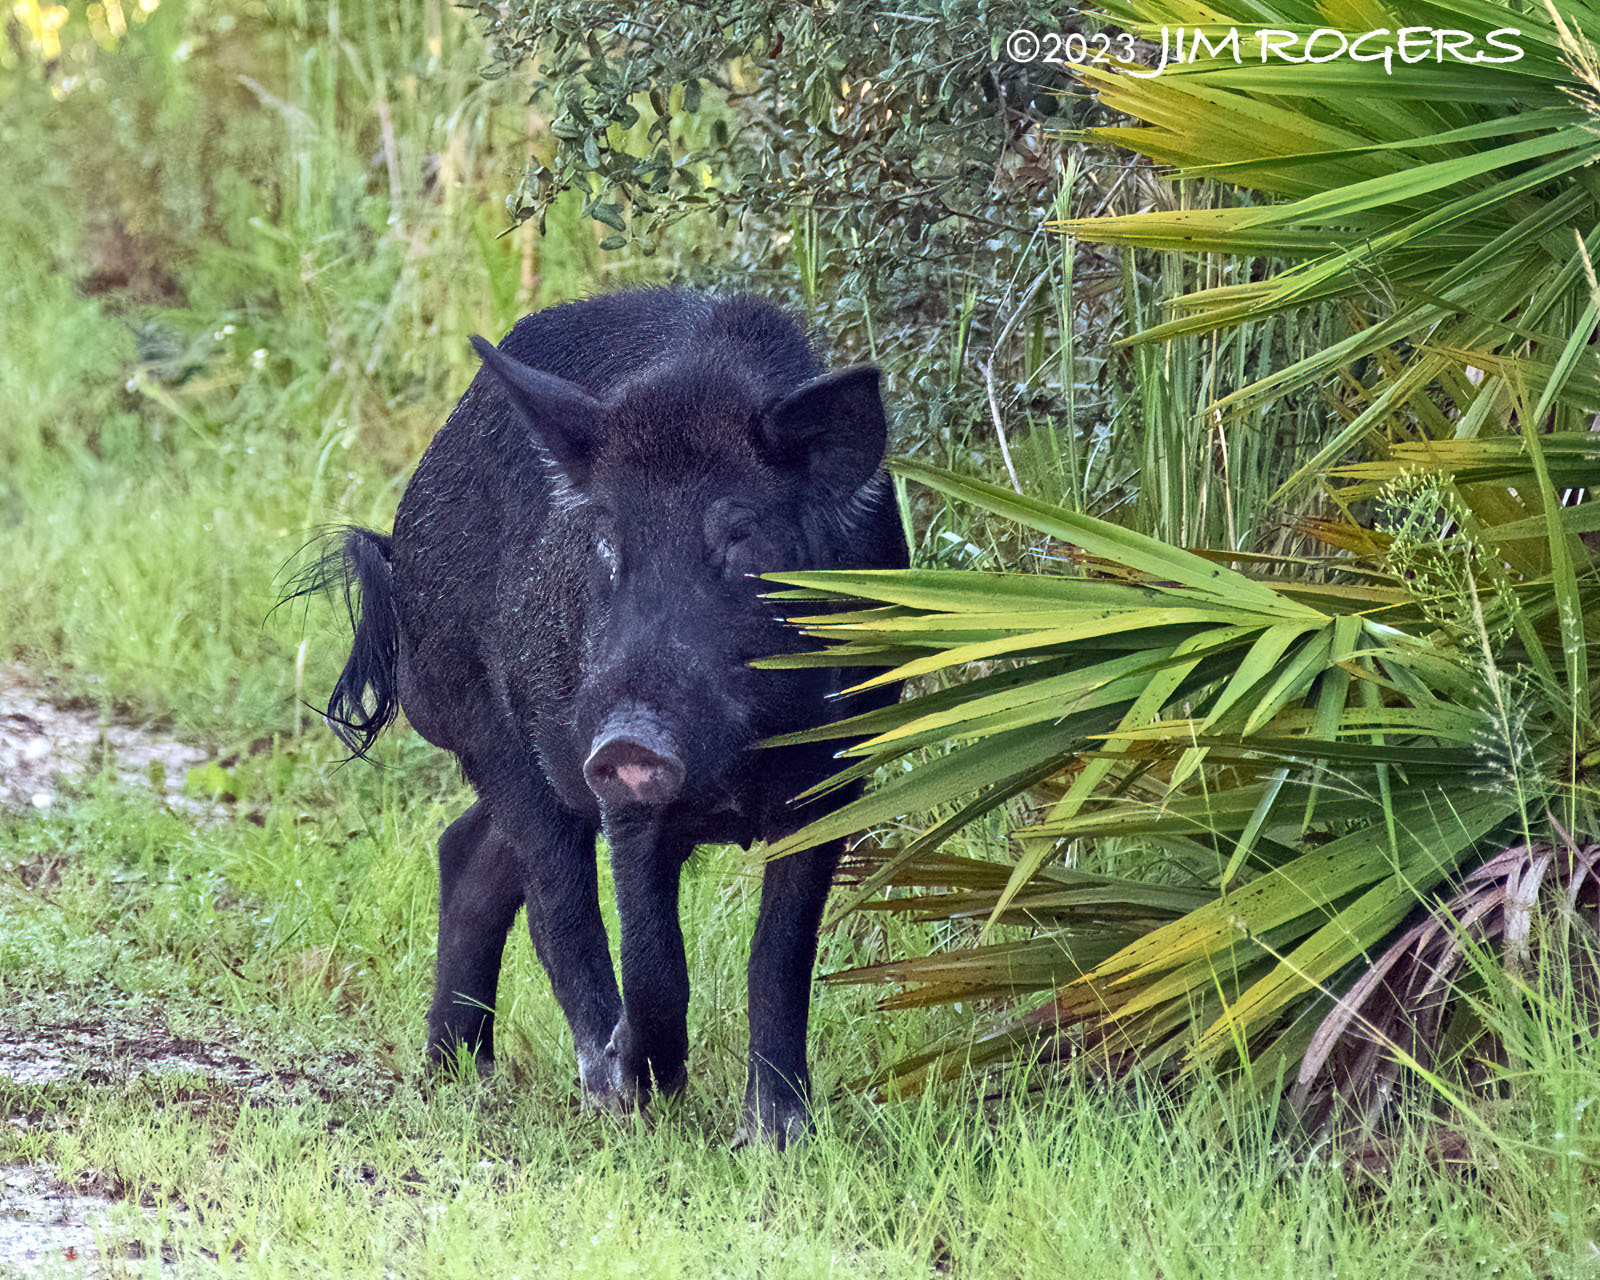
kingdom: Animalia
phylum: Chordata
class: Mammalia
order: Artiodactyla
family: Suidae
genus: Sus
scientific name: Sus scrofa
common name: Wild boar
